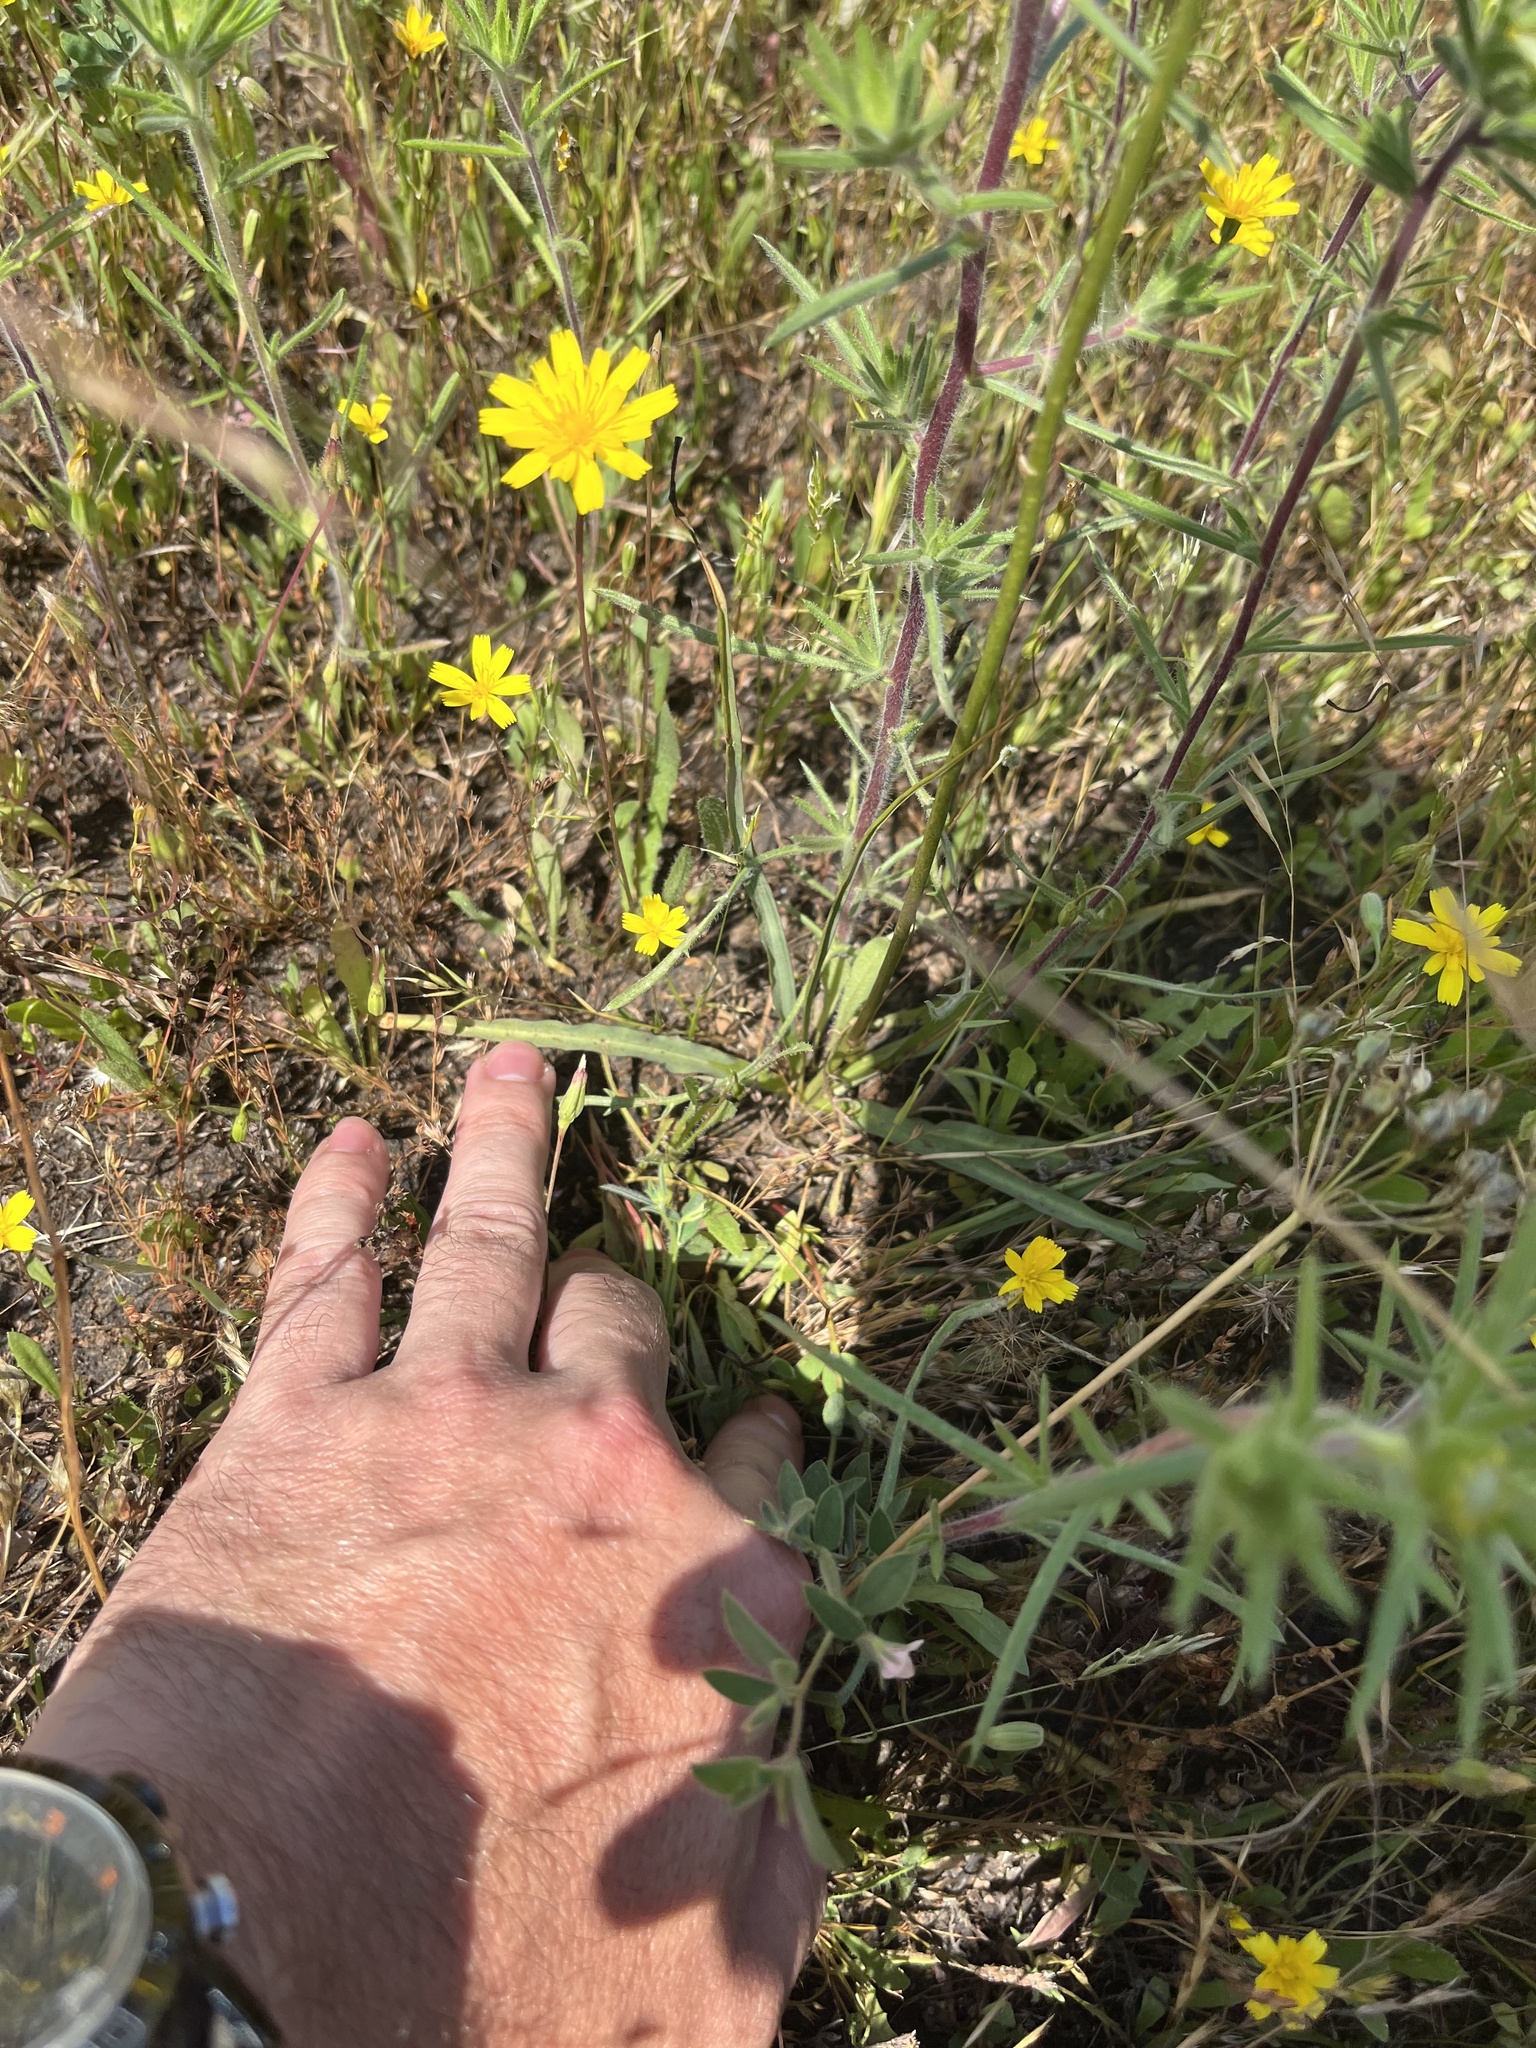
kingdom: Plantae
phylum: Tracheophyta
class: Liliopsida
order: Asparagales
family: Asparagaceae
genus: Chlorogalum
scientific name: Chlorogalum angustifolium
